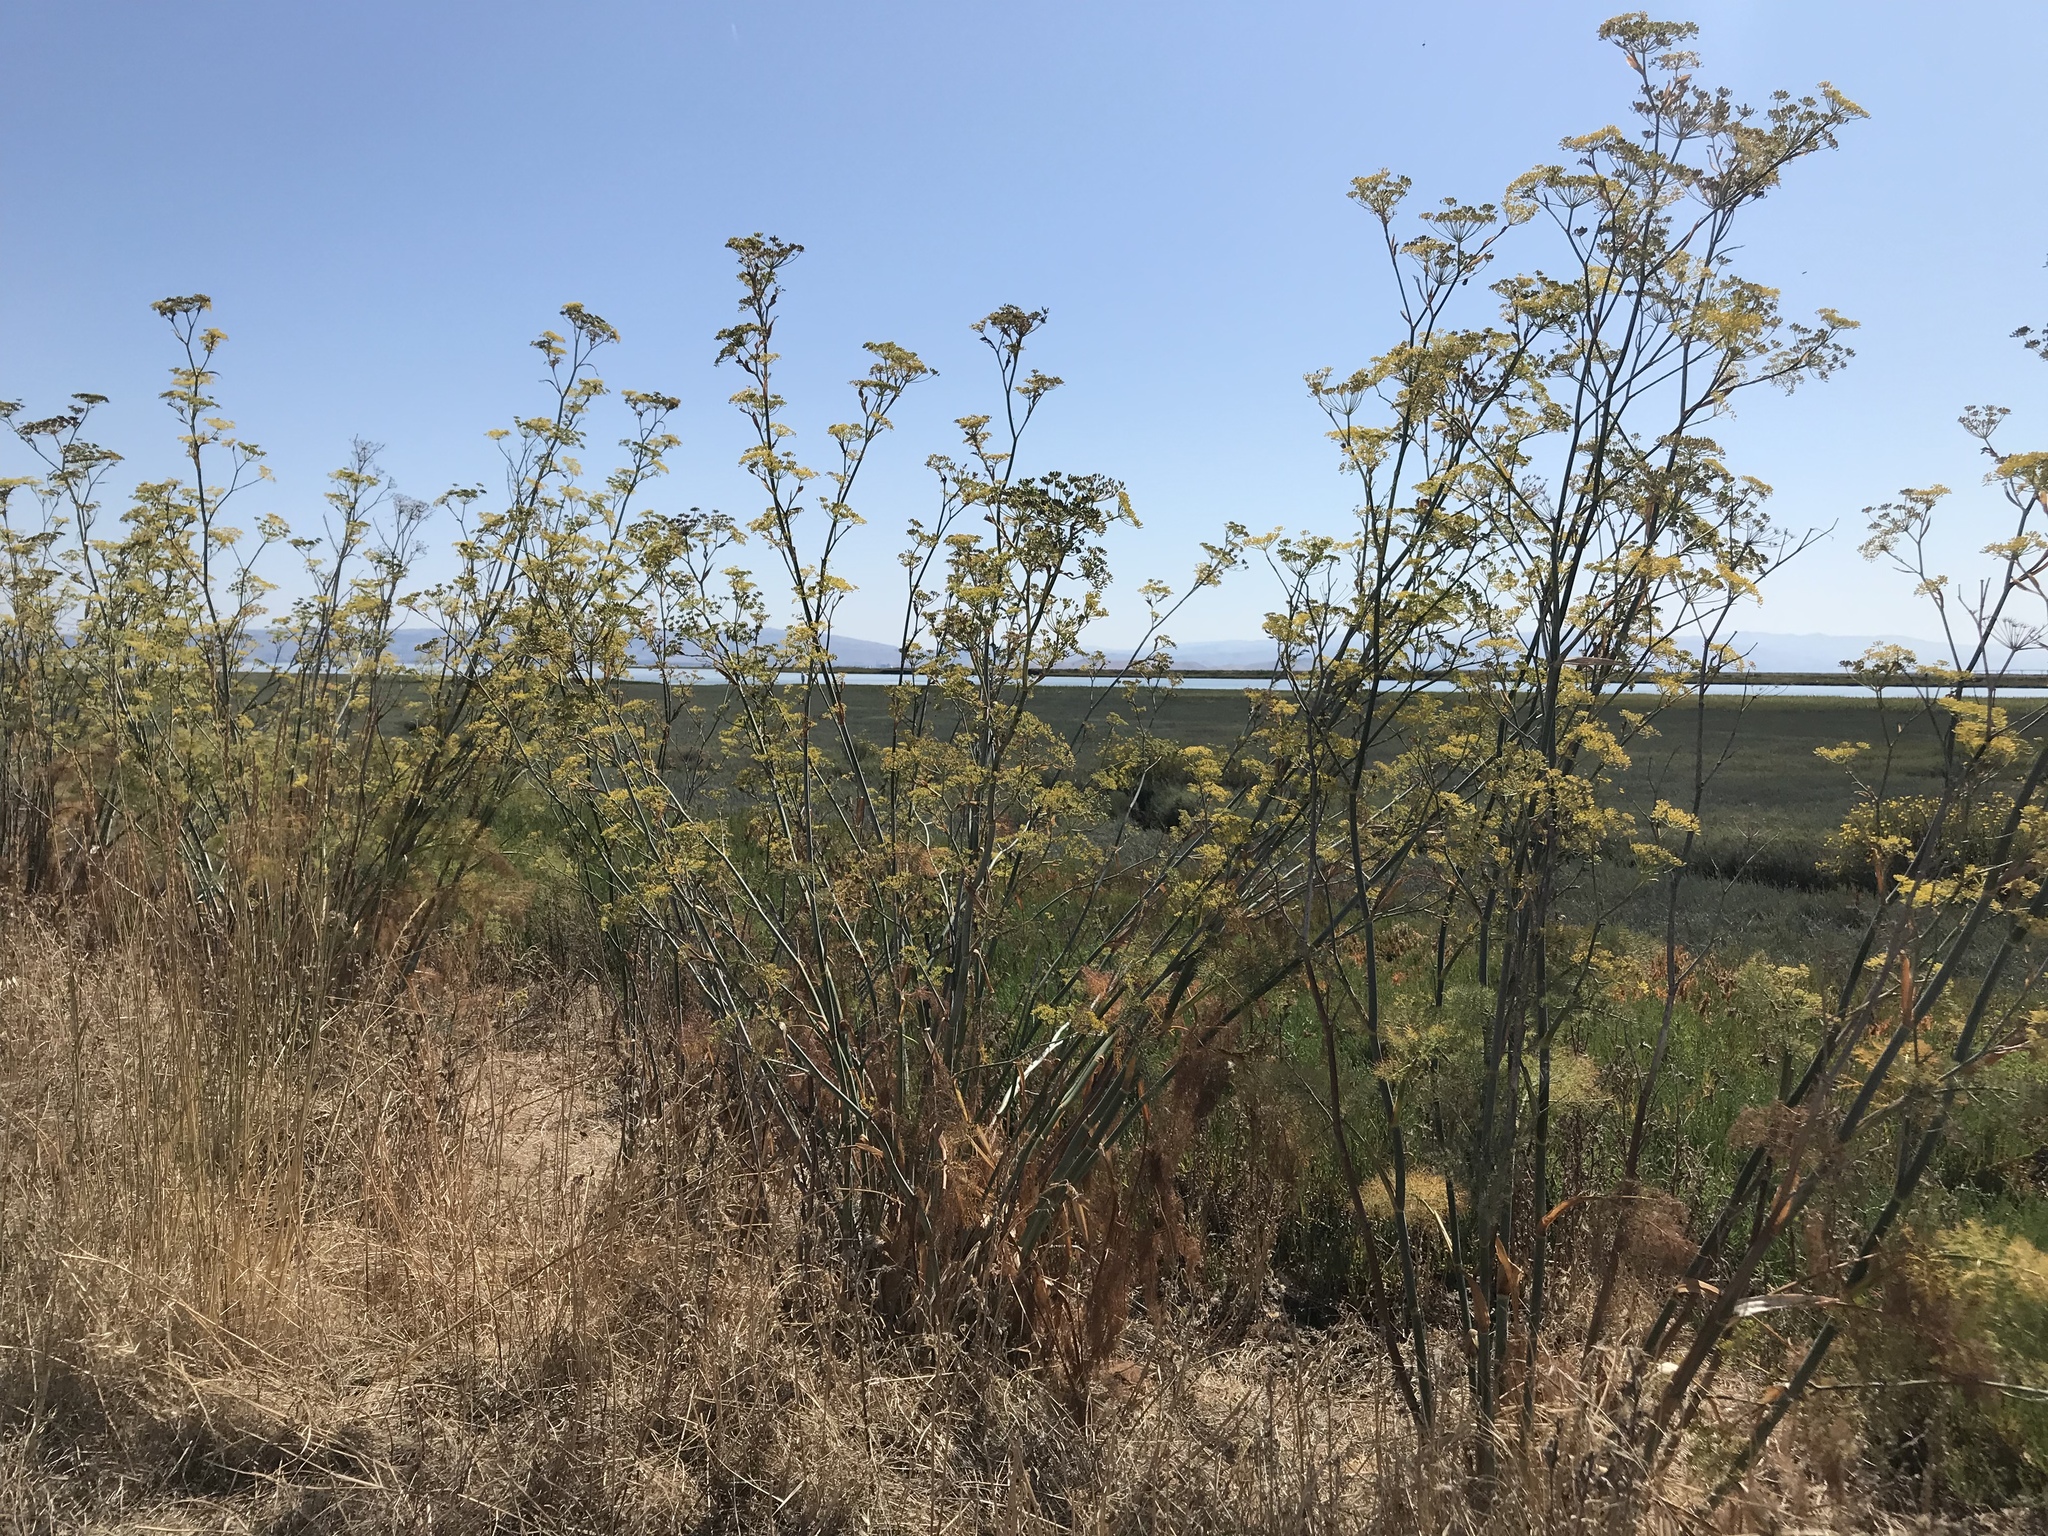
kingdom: Plantae
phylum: Tracheophyta
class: Magnoliopsida
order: Apiales
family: Apiaceae
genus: Foeniculum
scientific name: Foeniculum vulgare
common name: Fennel
